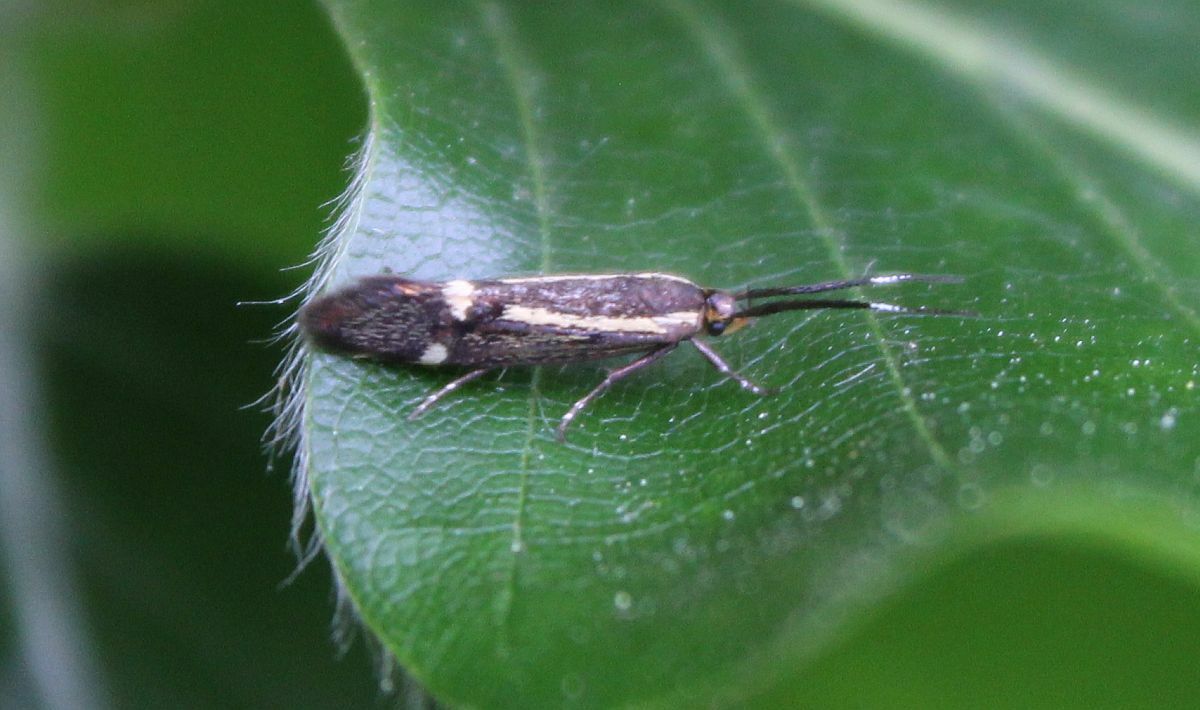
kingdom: Animalia
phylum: Arthropoda
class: Insecta
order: Lepidoptera
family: Oecophoridae
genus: Dafa
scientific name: Dafa Esperia sulphurella
